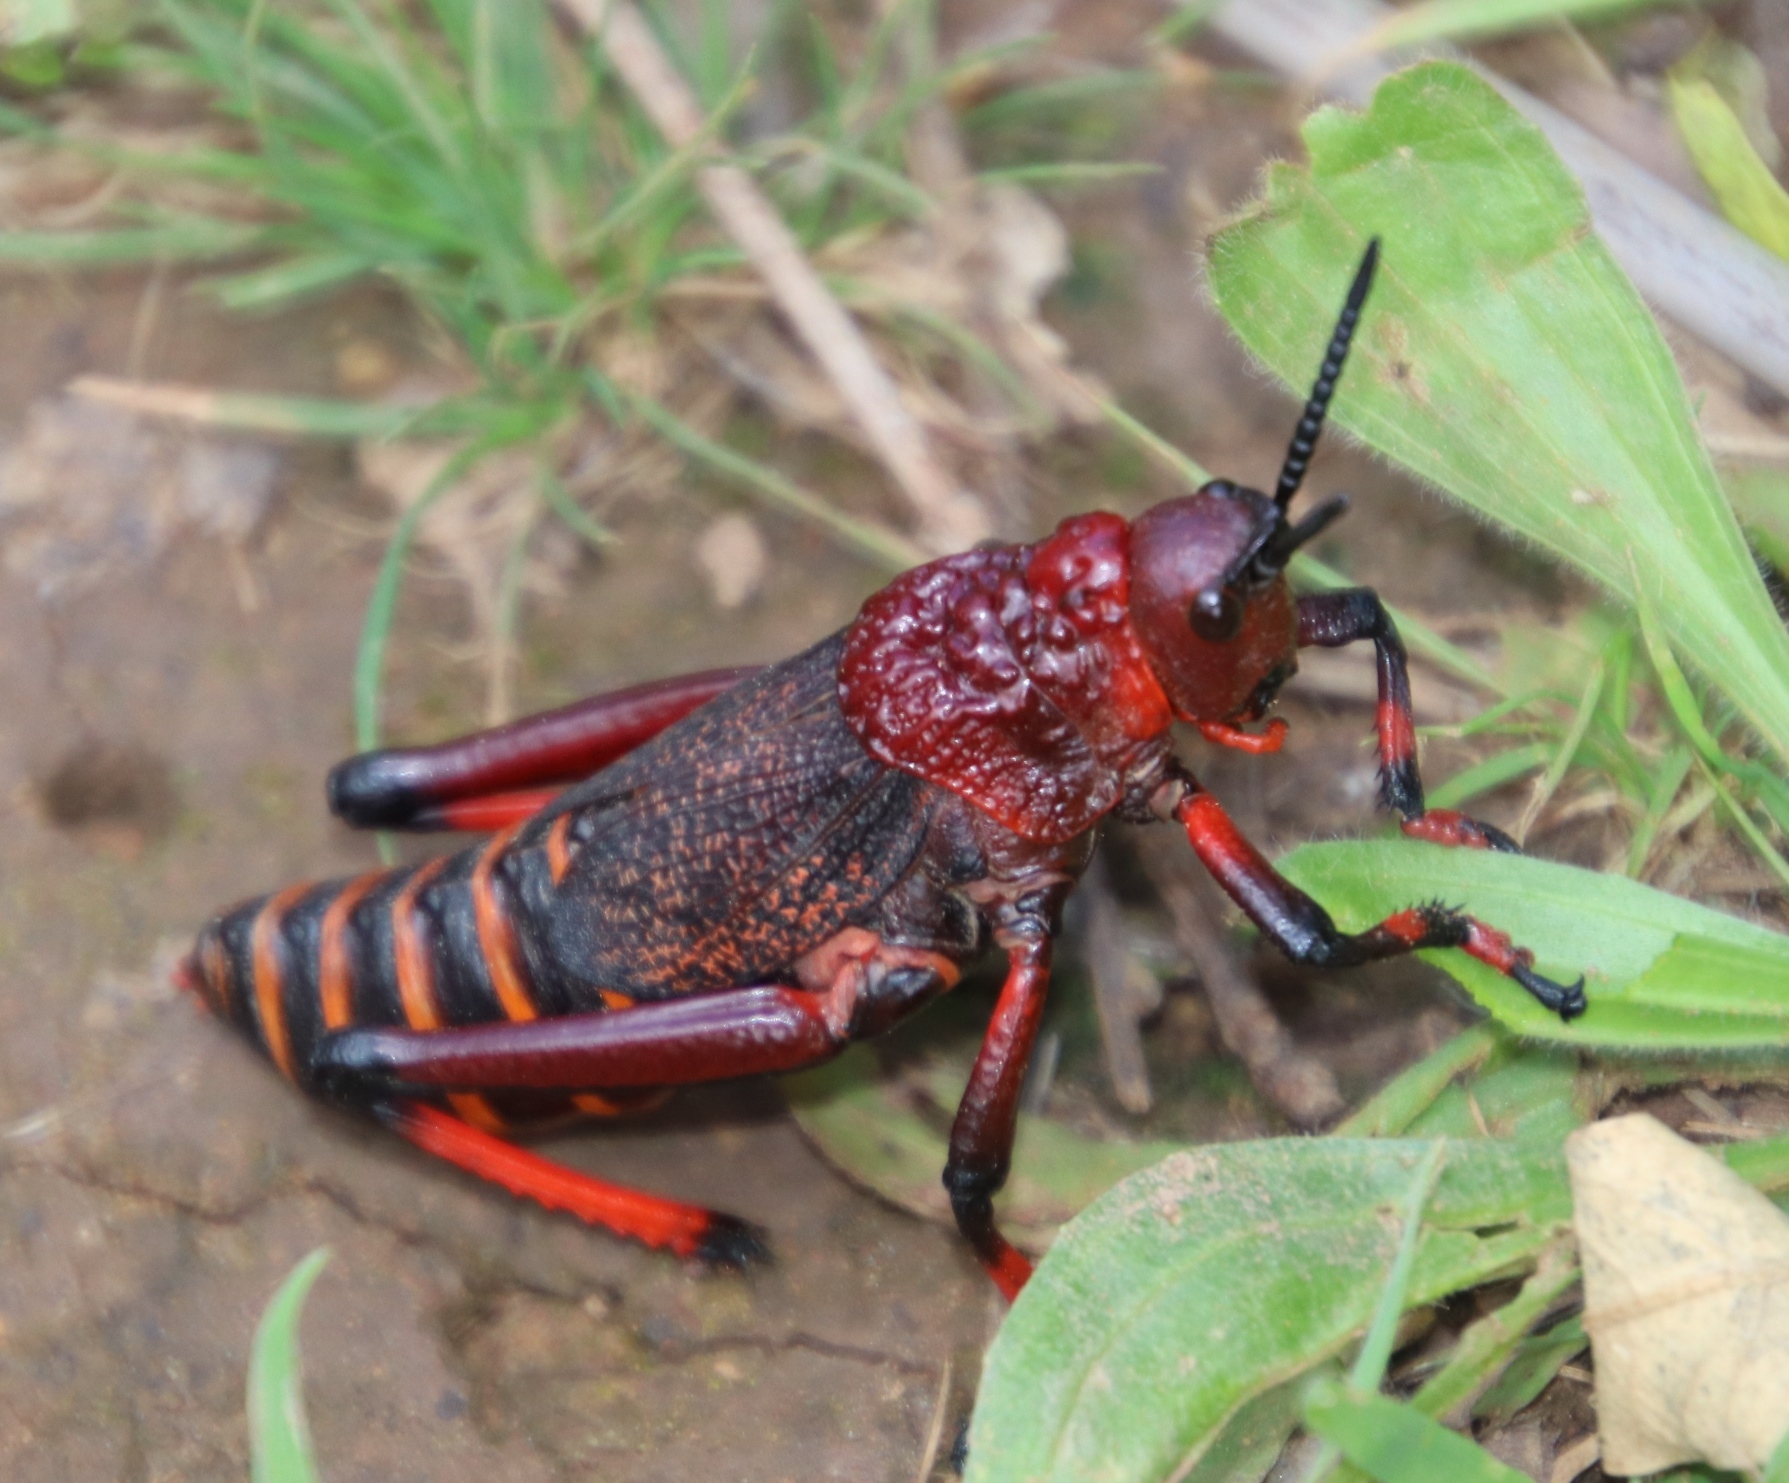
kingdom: Animalia
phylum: Arthropoda
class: Insecta
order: Orthoptera
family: Pyrgomorphidae
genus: Dictyophorus
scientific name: Dictyophorus spumans
